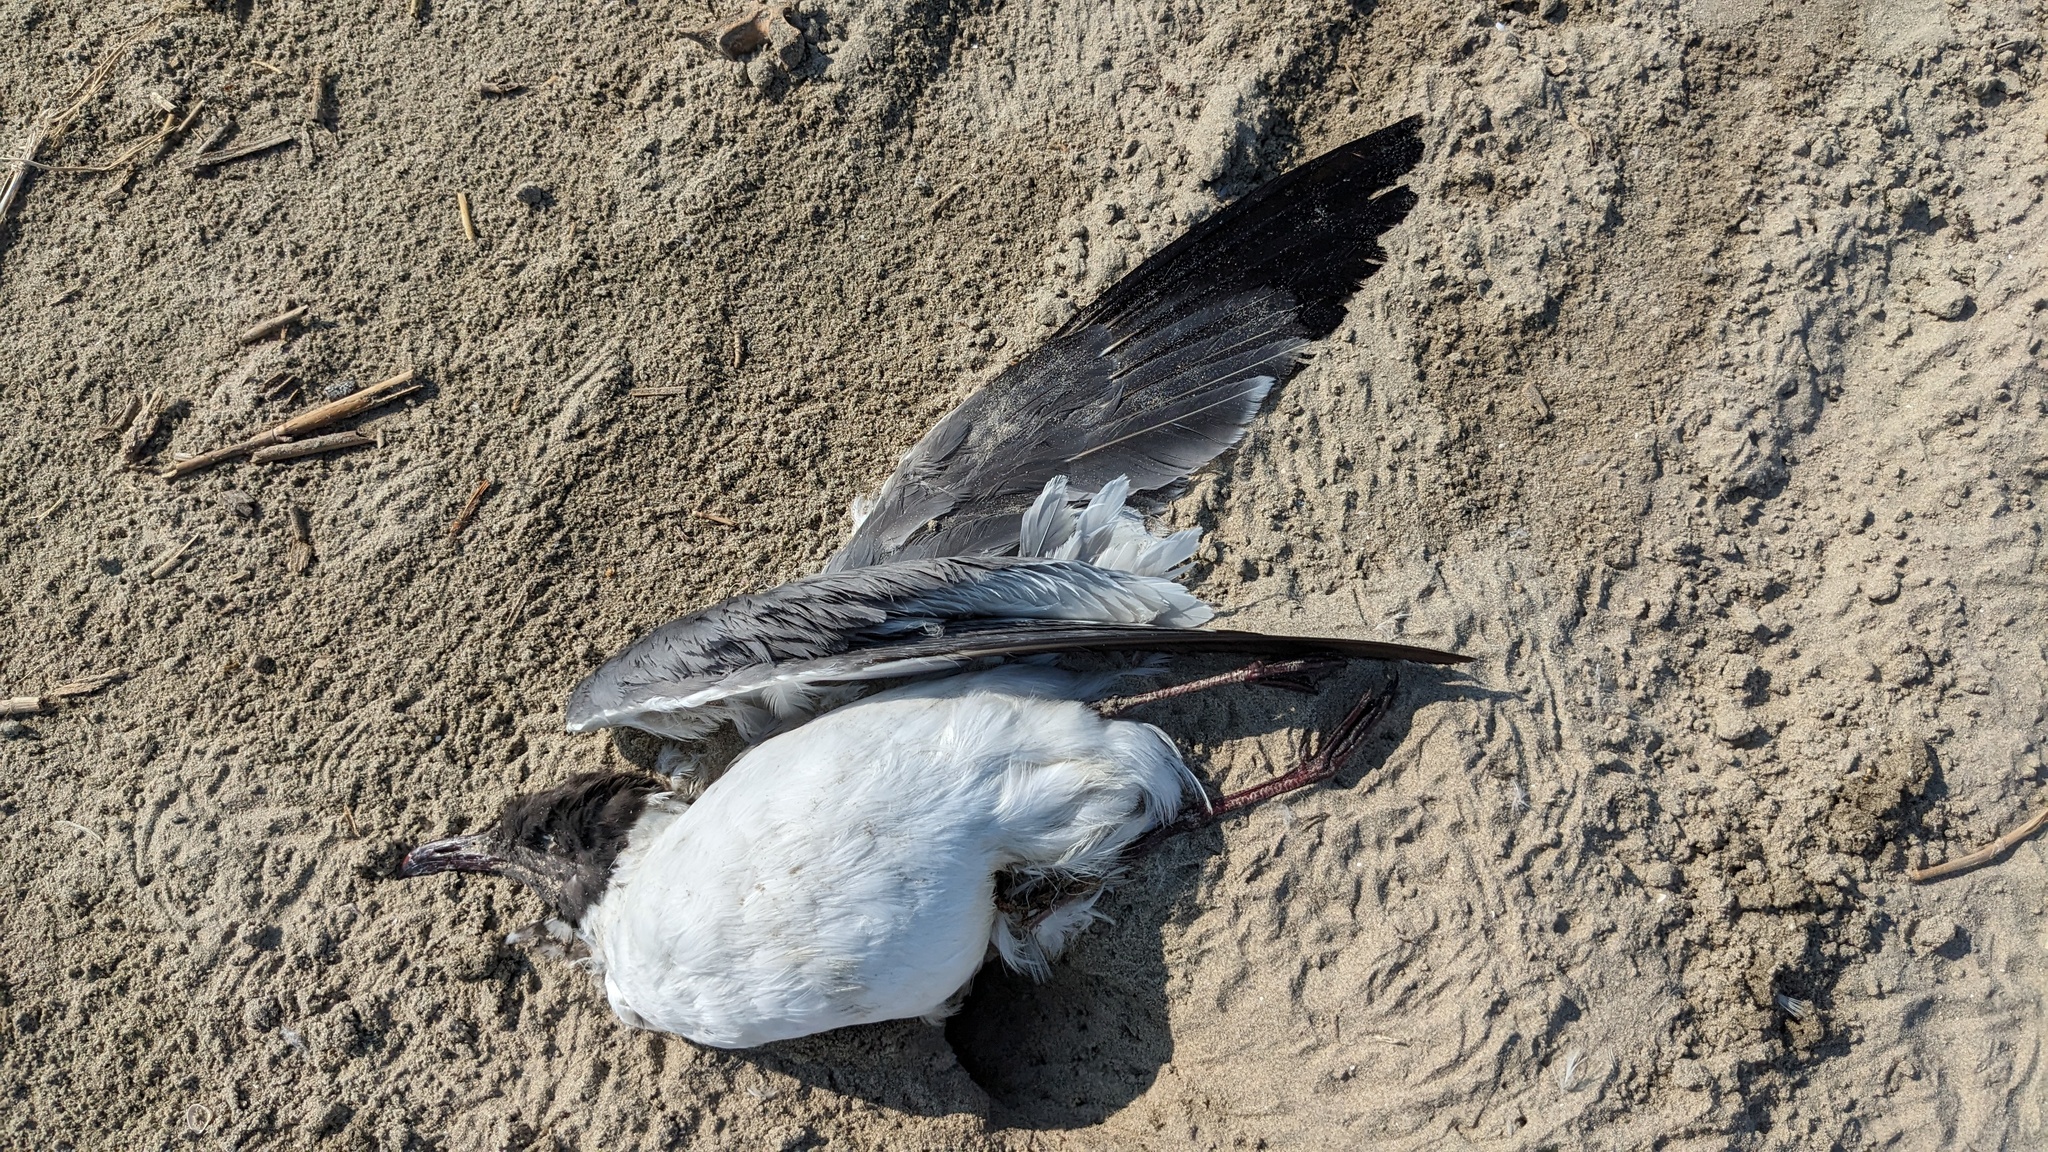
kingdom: Animalia
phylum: Chordata
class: Aves
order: Charadriiformes
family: Laridae
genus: Leucophaeus
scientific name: Leucophaeus atricilla
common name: Laughing gull
